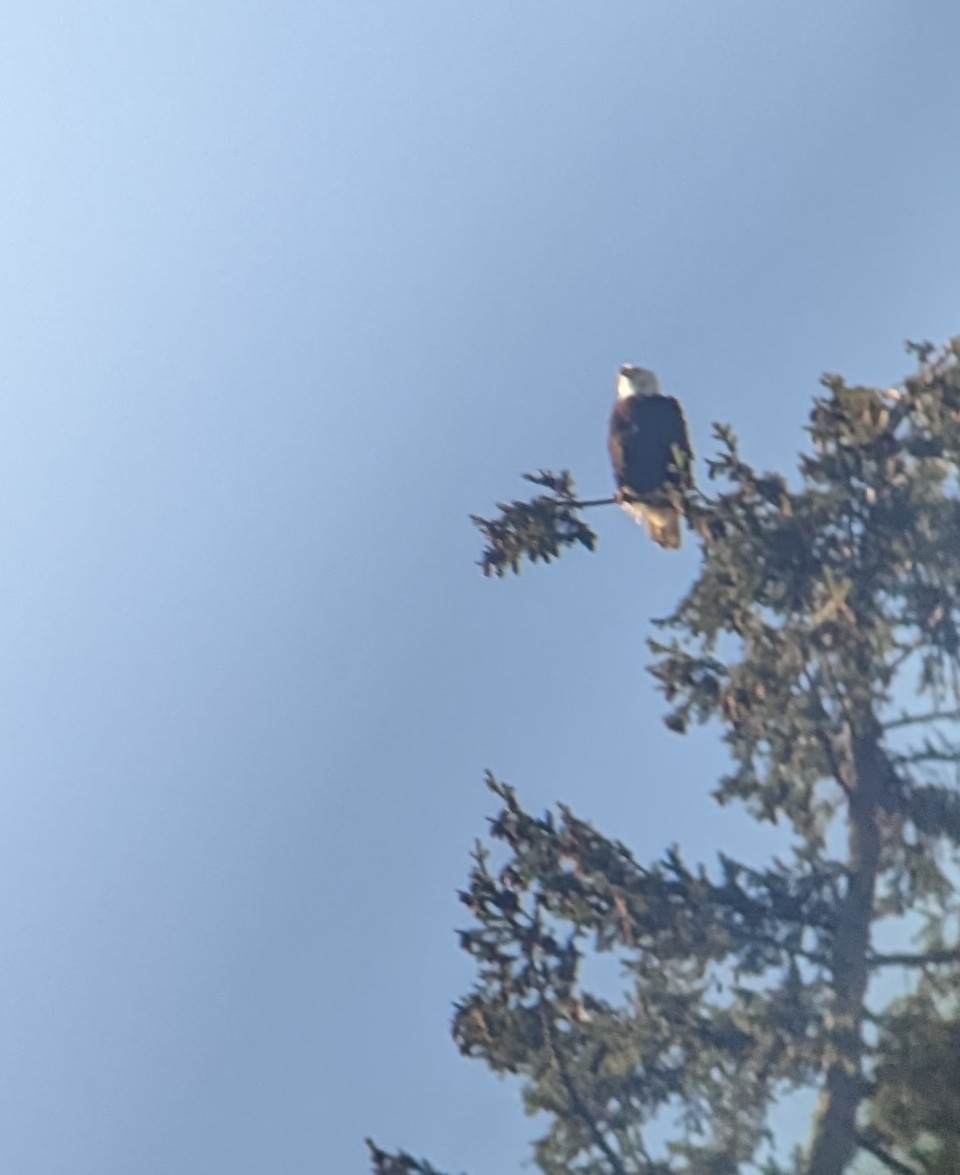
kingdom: Animalia
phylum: Chordata
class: Aves
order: Accipitriformes
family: Accipitridae
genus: Haliaeetus
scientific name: Haliaeetus leucocephalus
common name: Bald eagle
